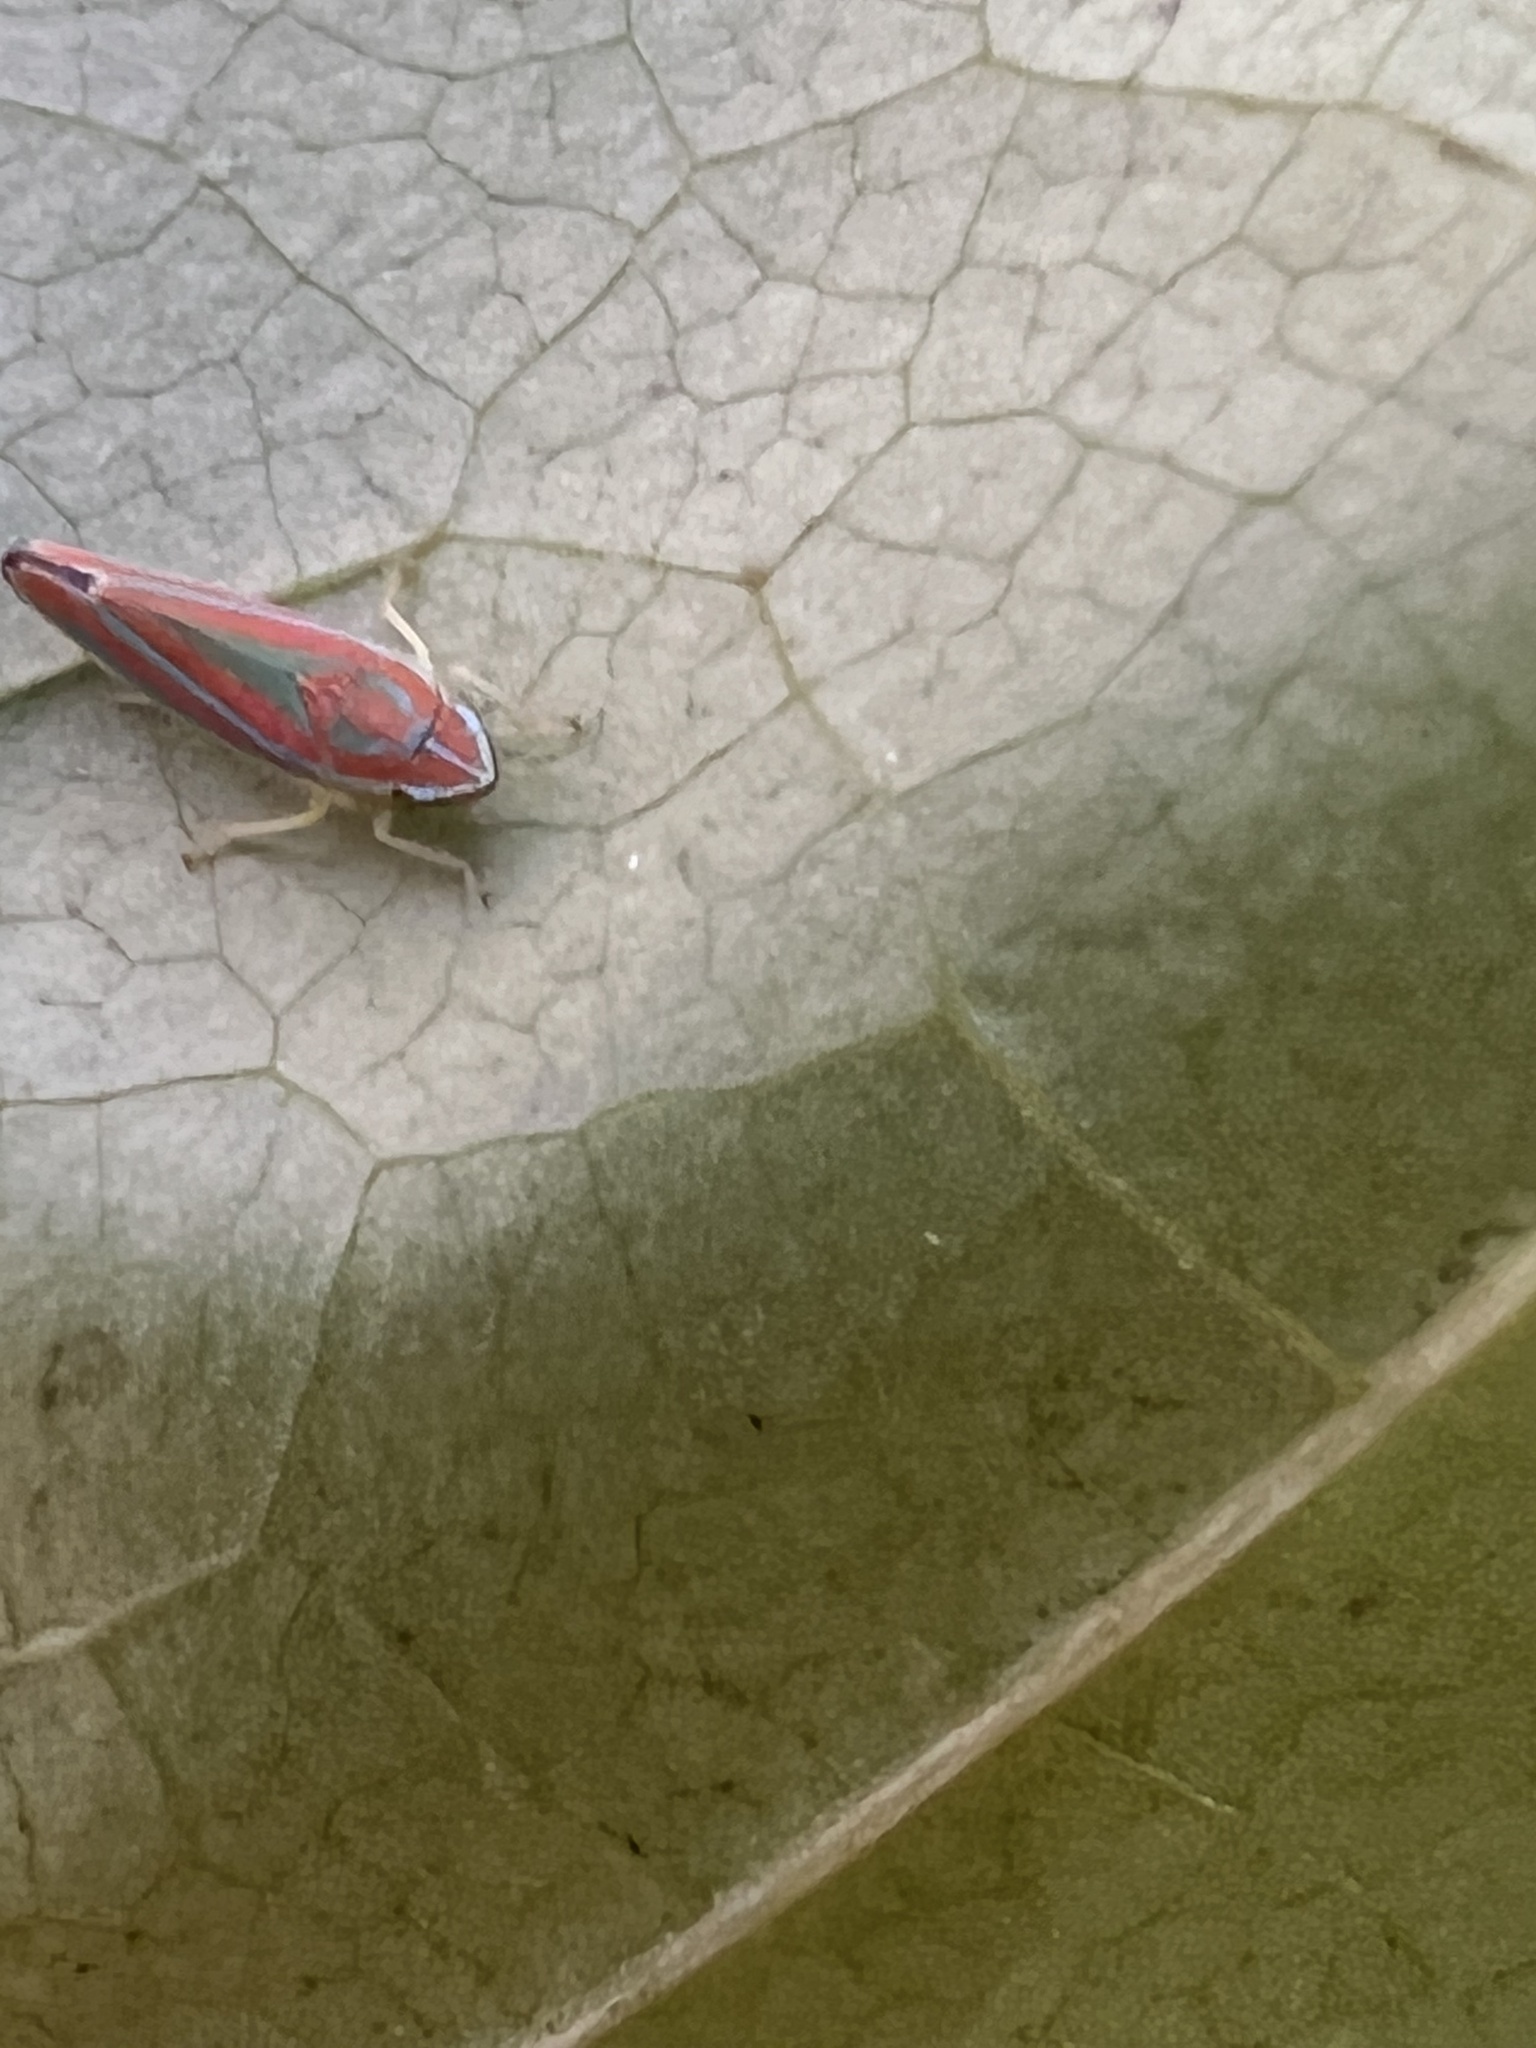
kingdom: Animalia
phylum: Arthropoda
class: Insecta
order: Hemiptera
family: Cicadellidae
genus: Graphocephala
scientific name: Graphocephala versuta
